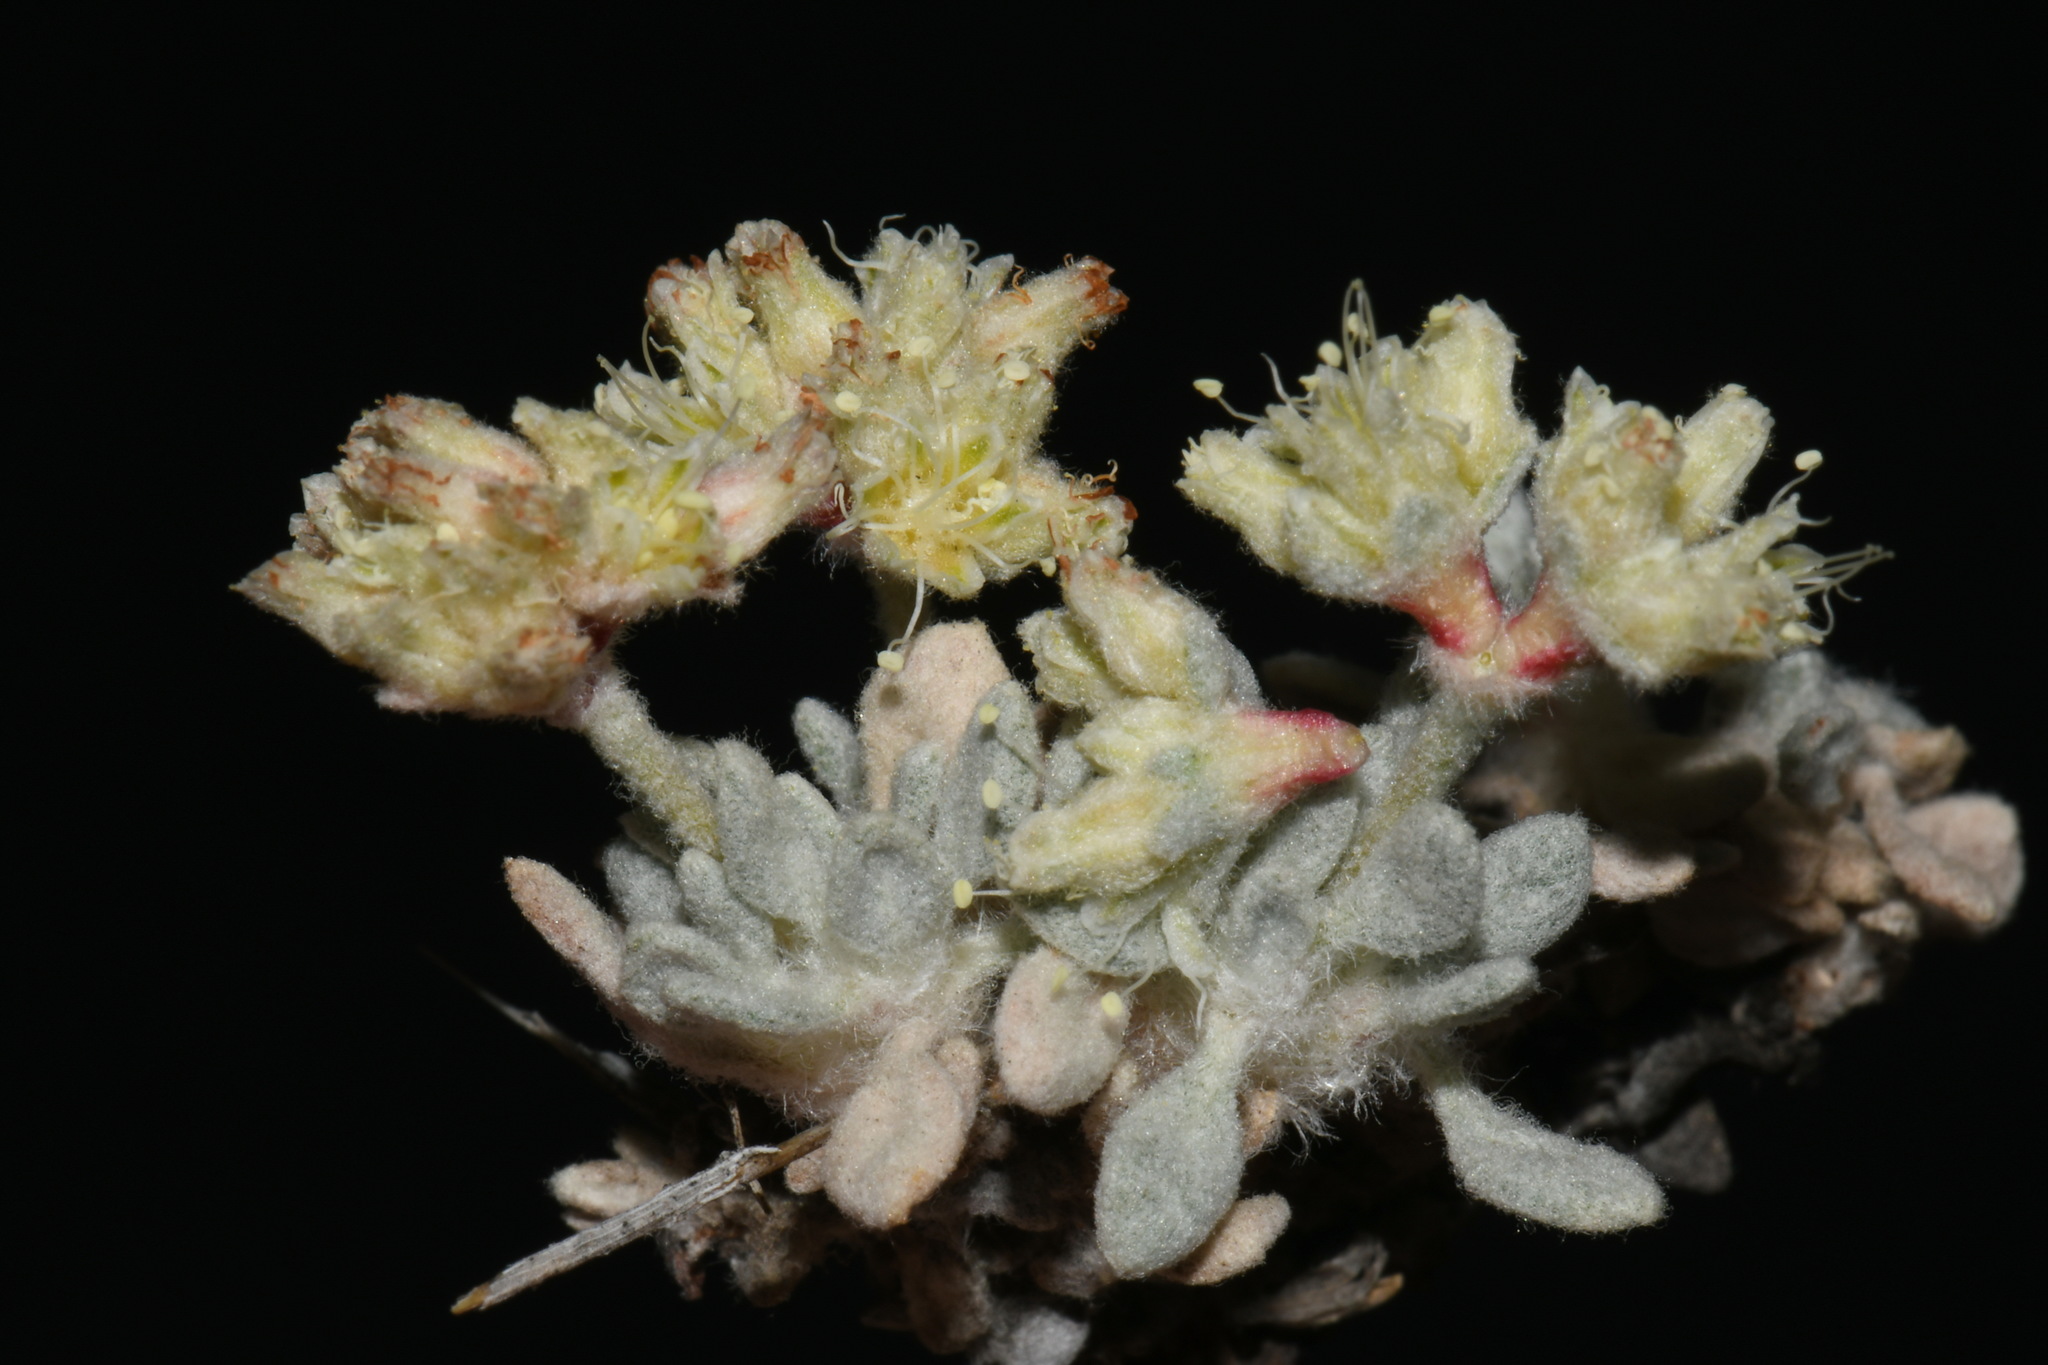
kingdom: Plantae
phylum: Tracheophyta
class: Magnoliopsida
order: Caryophyllales
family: Polygonaceae
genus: Eriogonum
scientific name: Eriogonum shockleyi
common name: Shockley's wild buckwheat
